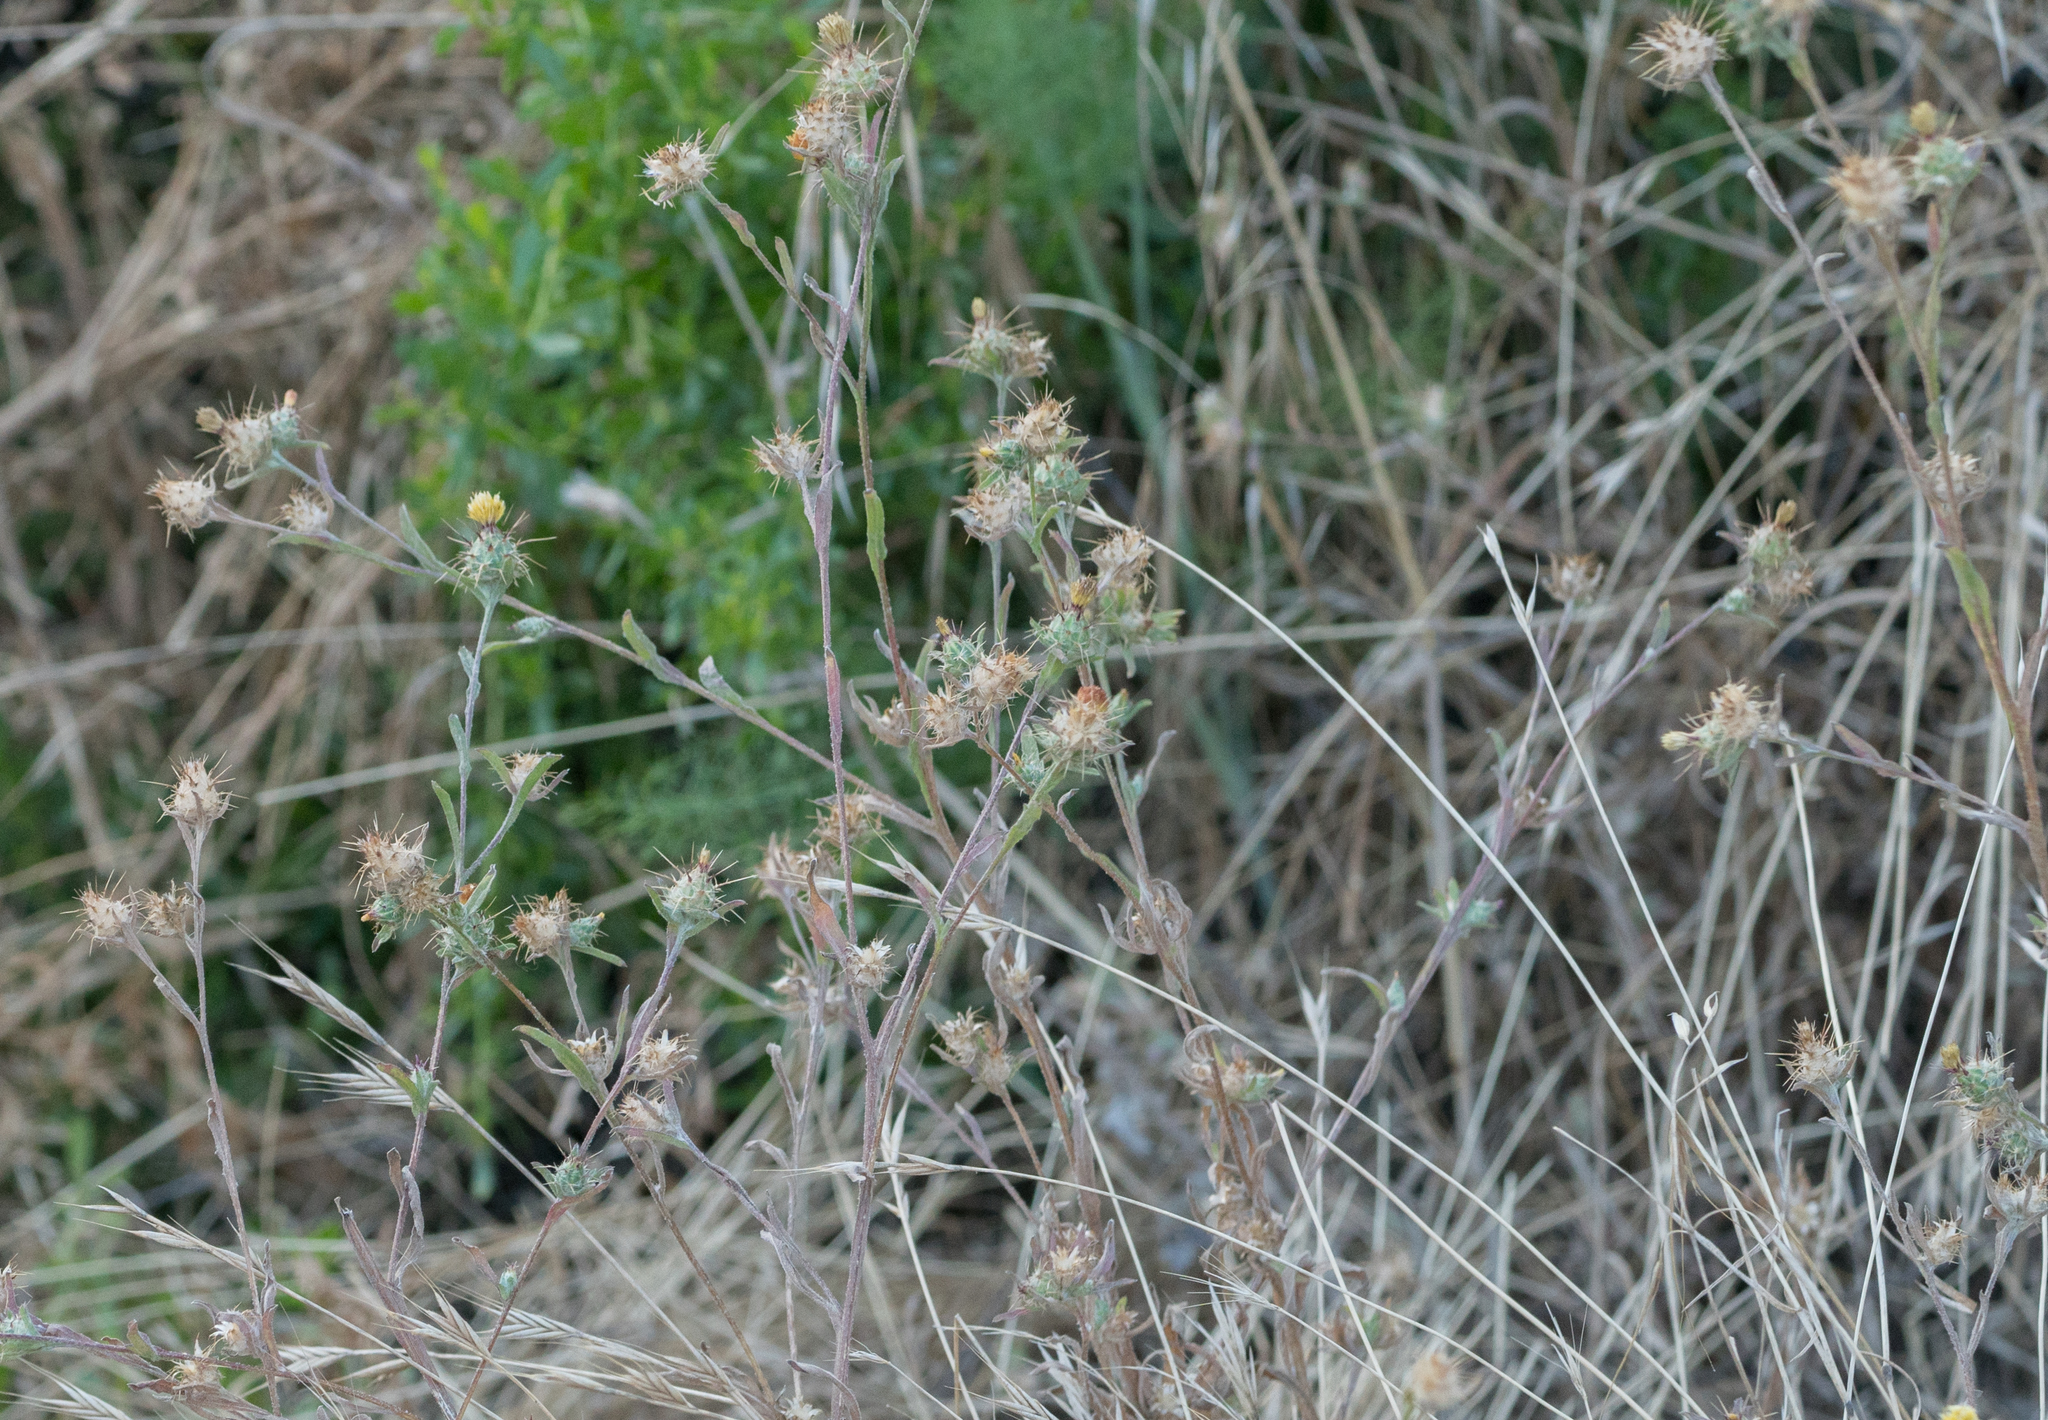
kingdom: Plantae
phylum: Tracheophyta
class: Magnoliopsida
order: Asterales
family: Asteraceae
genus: Centaurea
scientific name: Centaurea melitensis
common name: Maltese star-thistle
